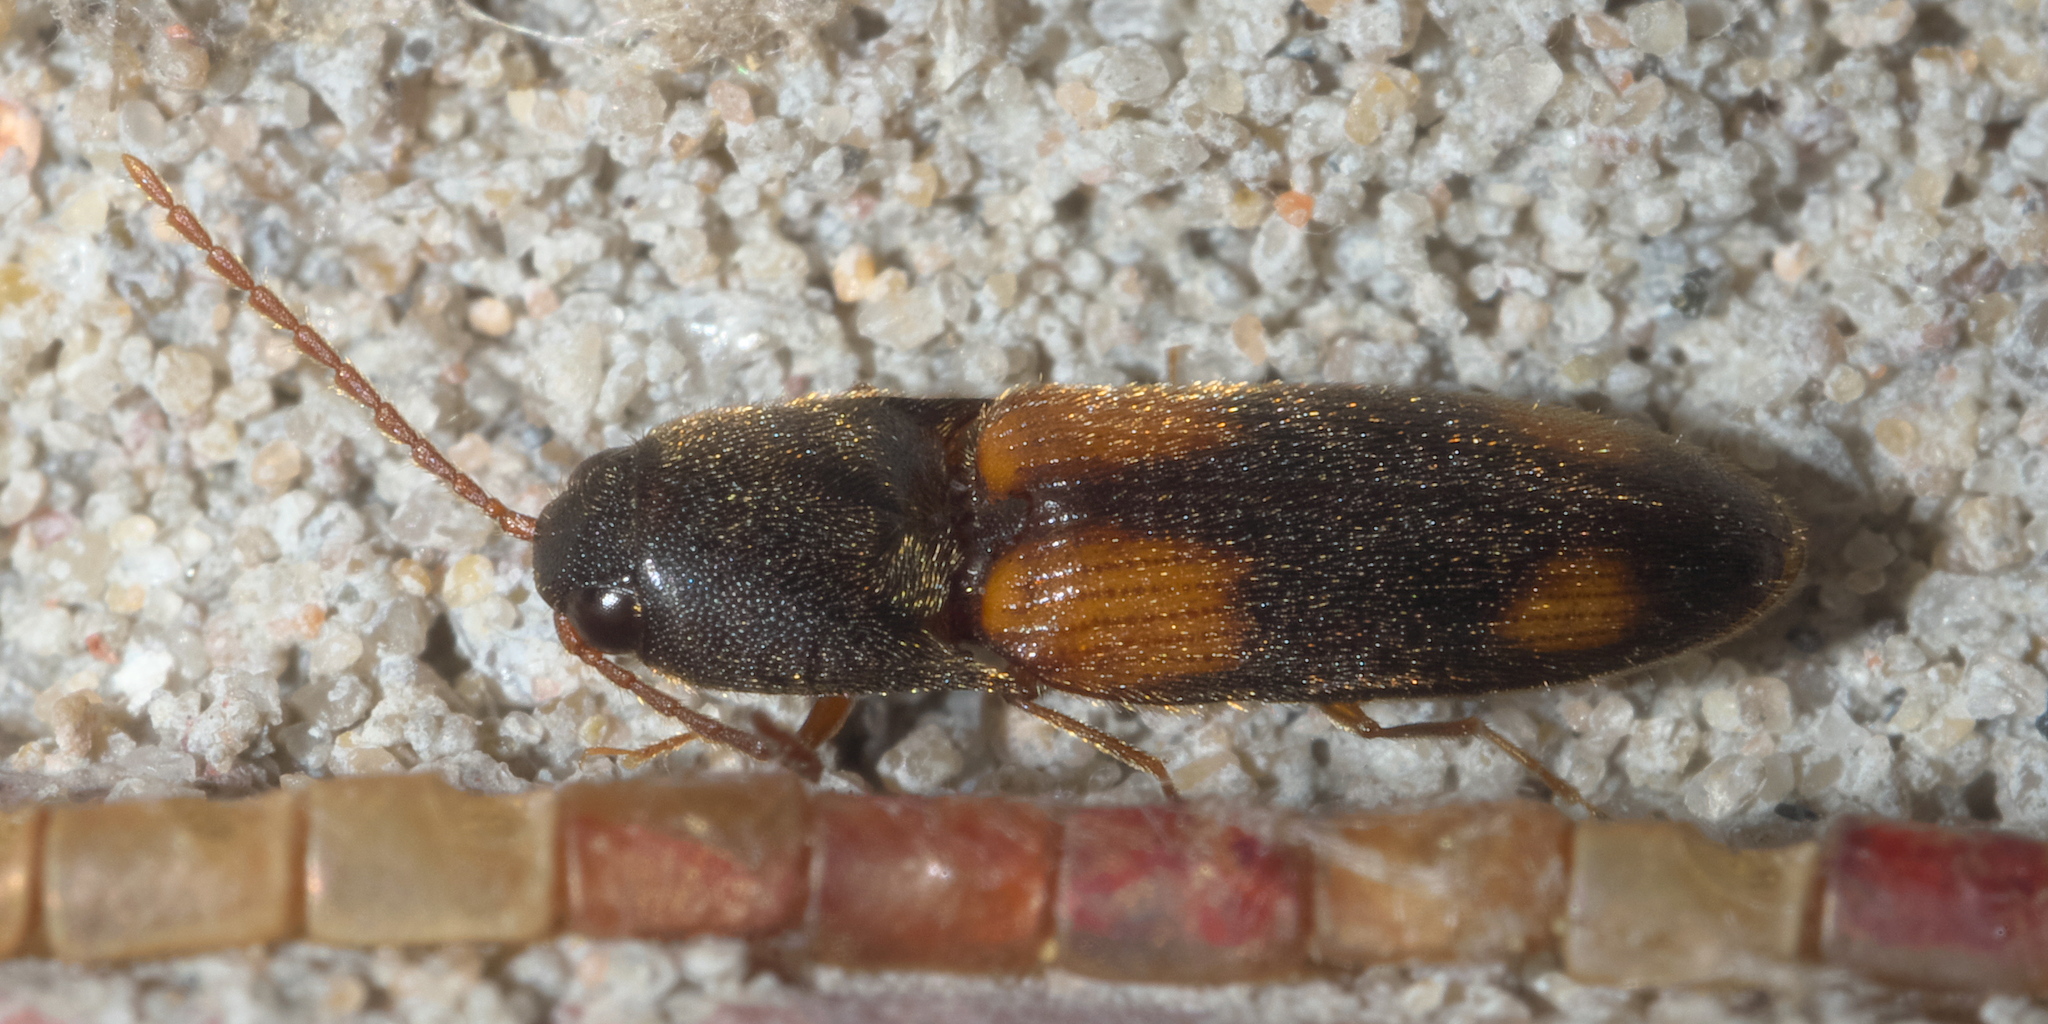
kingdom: Animalia
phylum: Arthropoda
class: Insecta
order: Coleoptera
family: Elateridae
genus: Anchastus
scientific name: Anchastus binus
